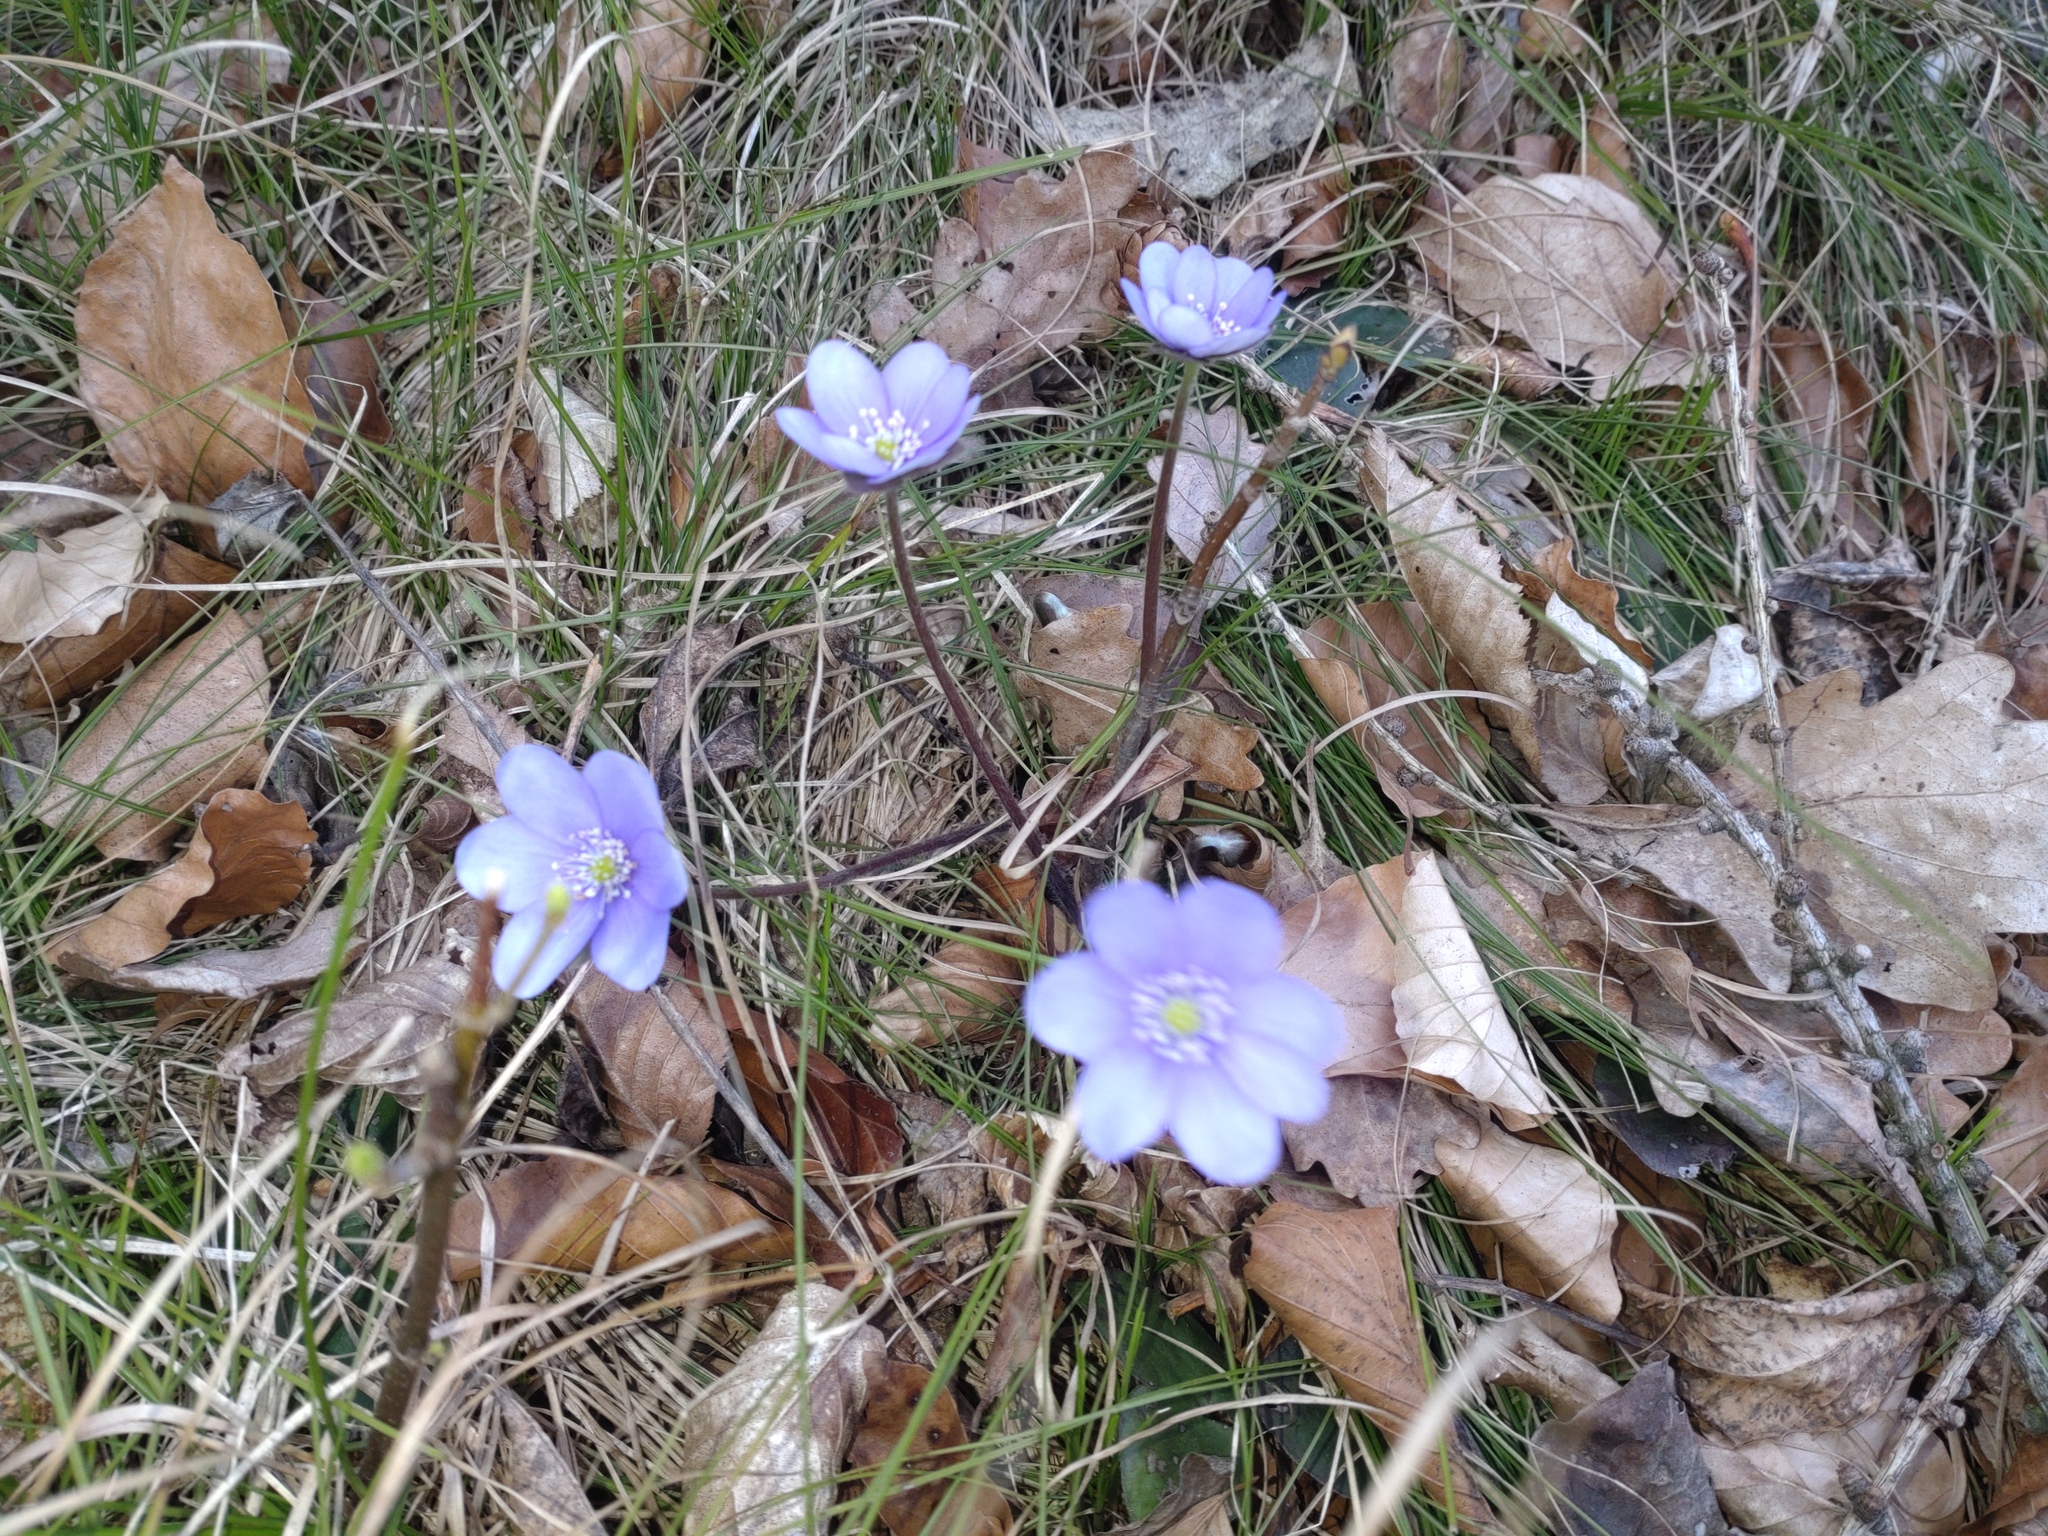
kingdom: Plantae
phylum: Tracheophyta
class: Magnoliopsida
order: Ranunculales
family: Ranunculaceae
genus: Hepatica
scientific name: Hepatica nobilis
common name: Liverleaf
